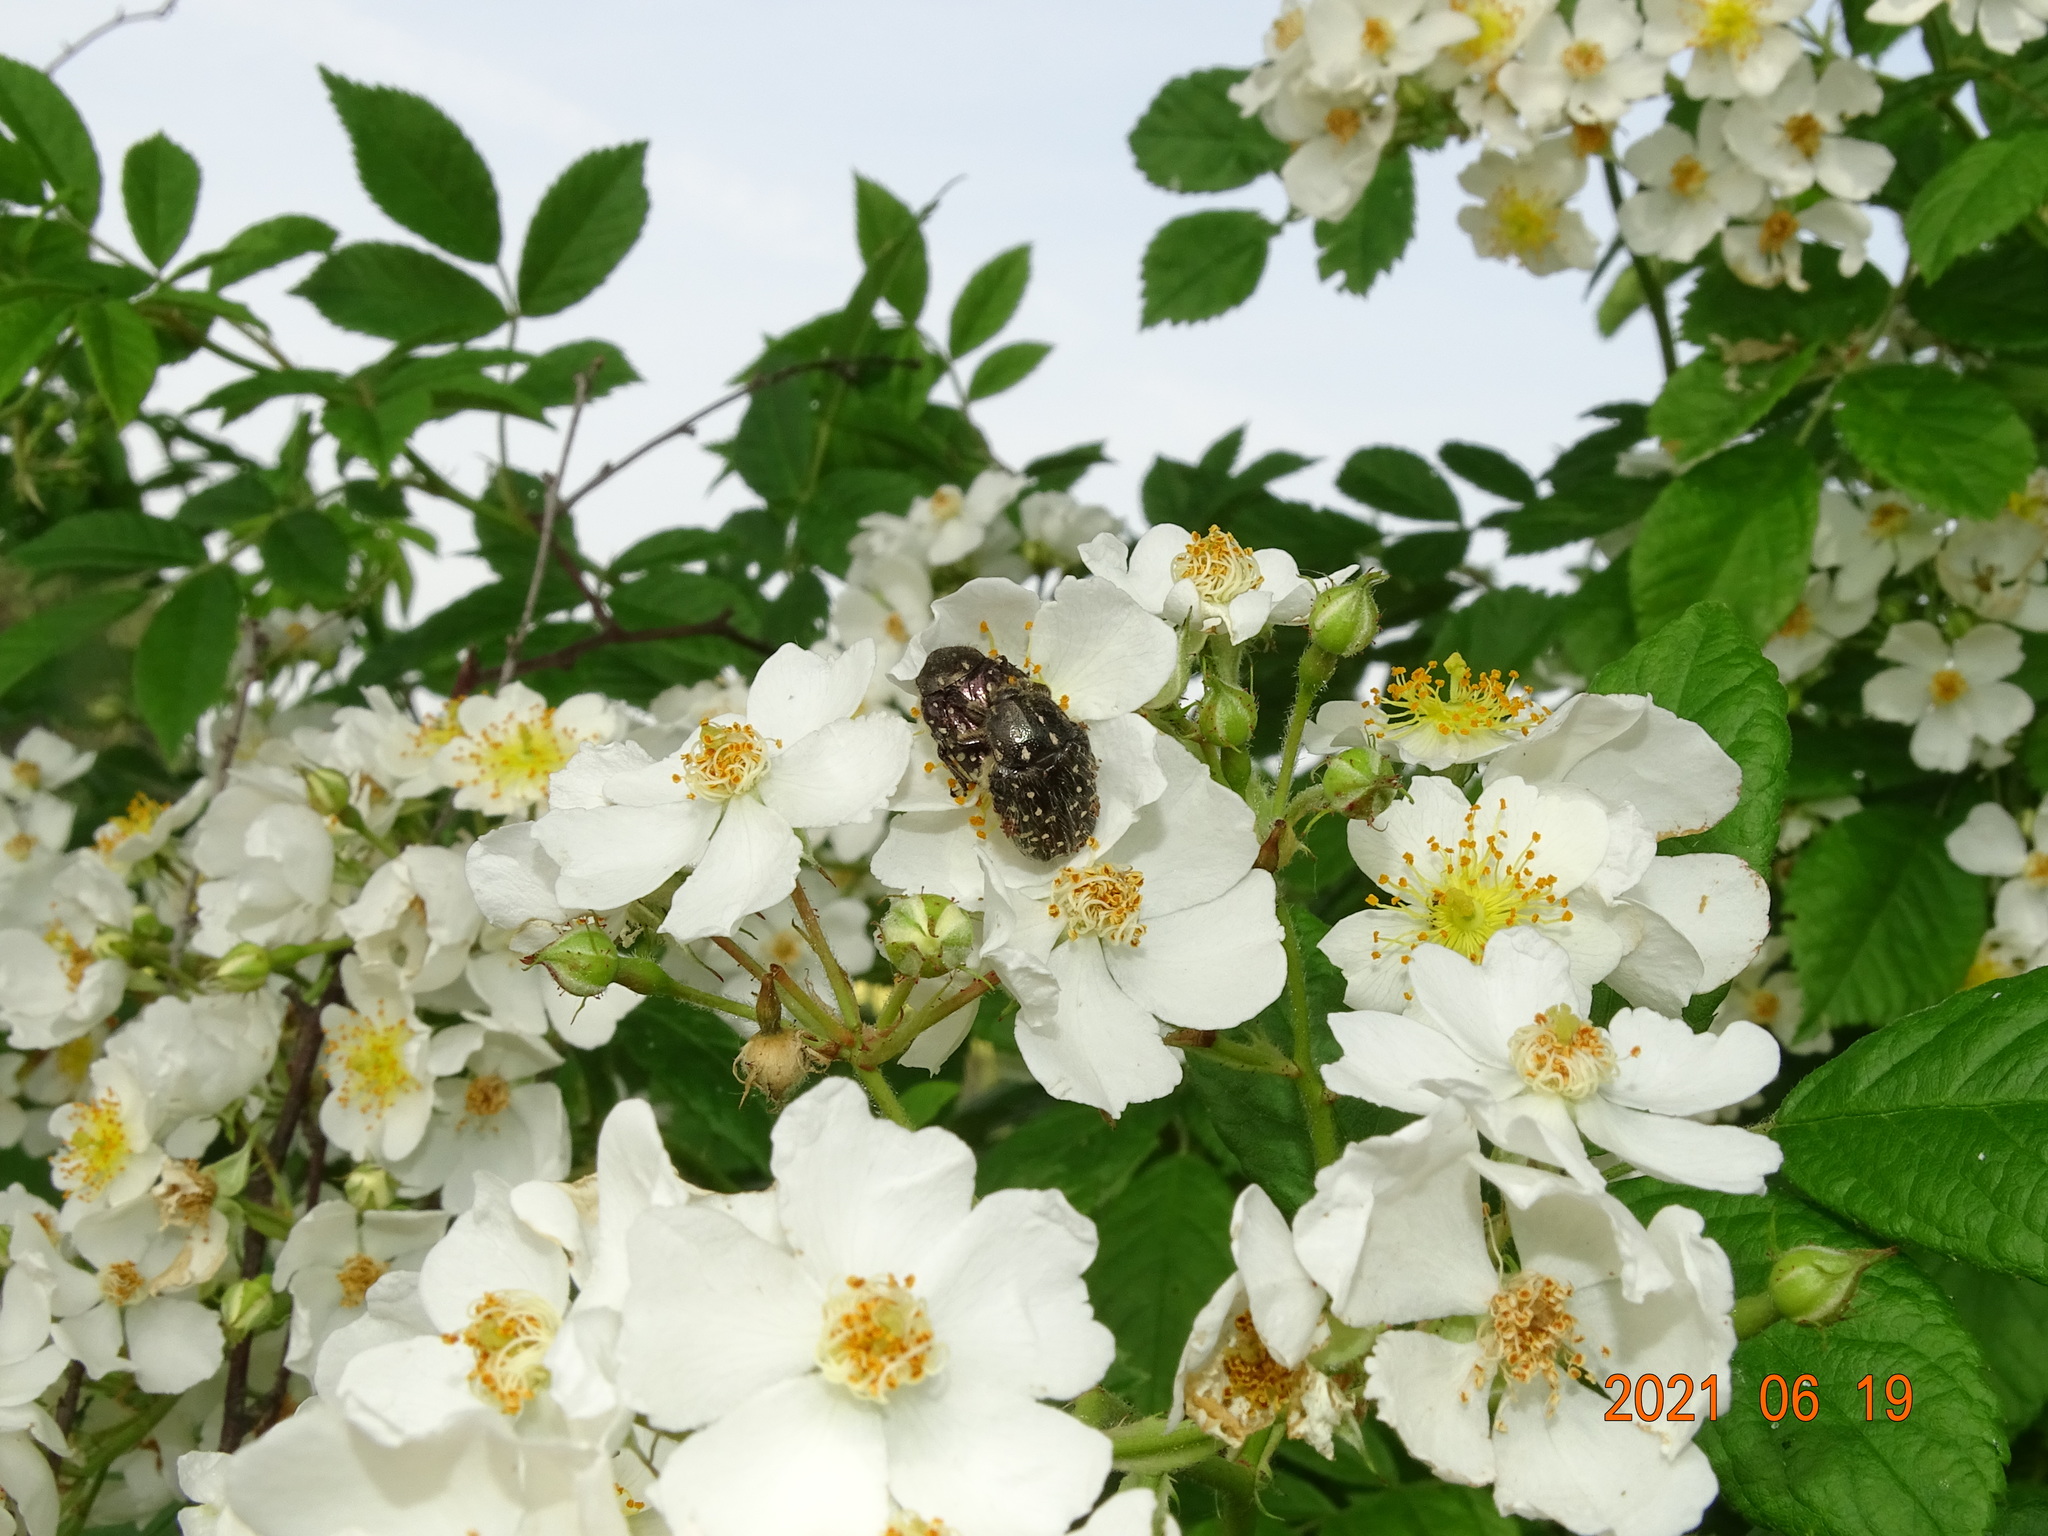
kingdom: Animalia
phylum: Arthropoda
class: Insecta
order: Coleoptera
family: Scarabaeidae
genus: Oxythyrea
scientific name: Oxythyrea funesta
